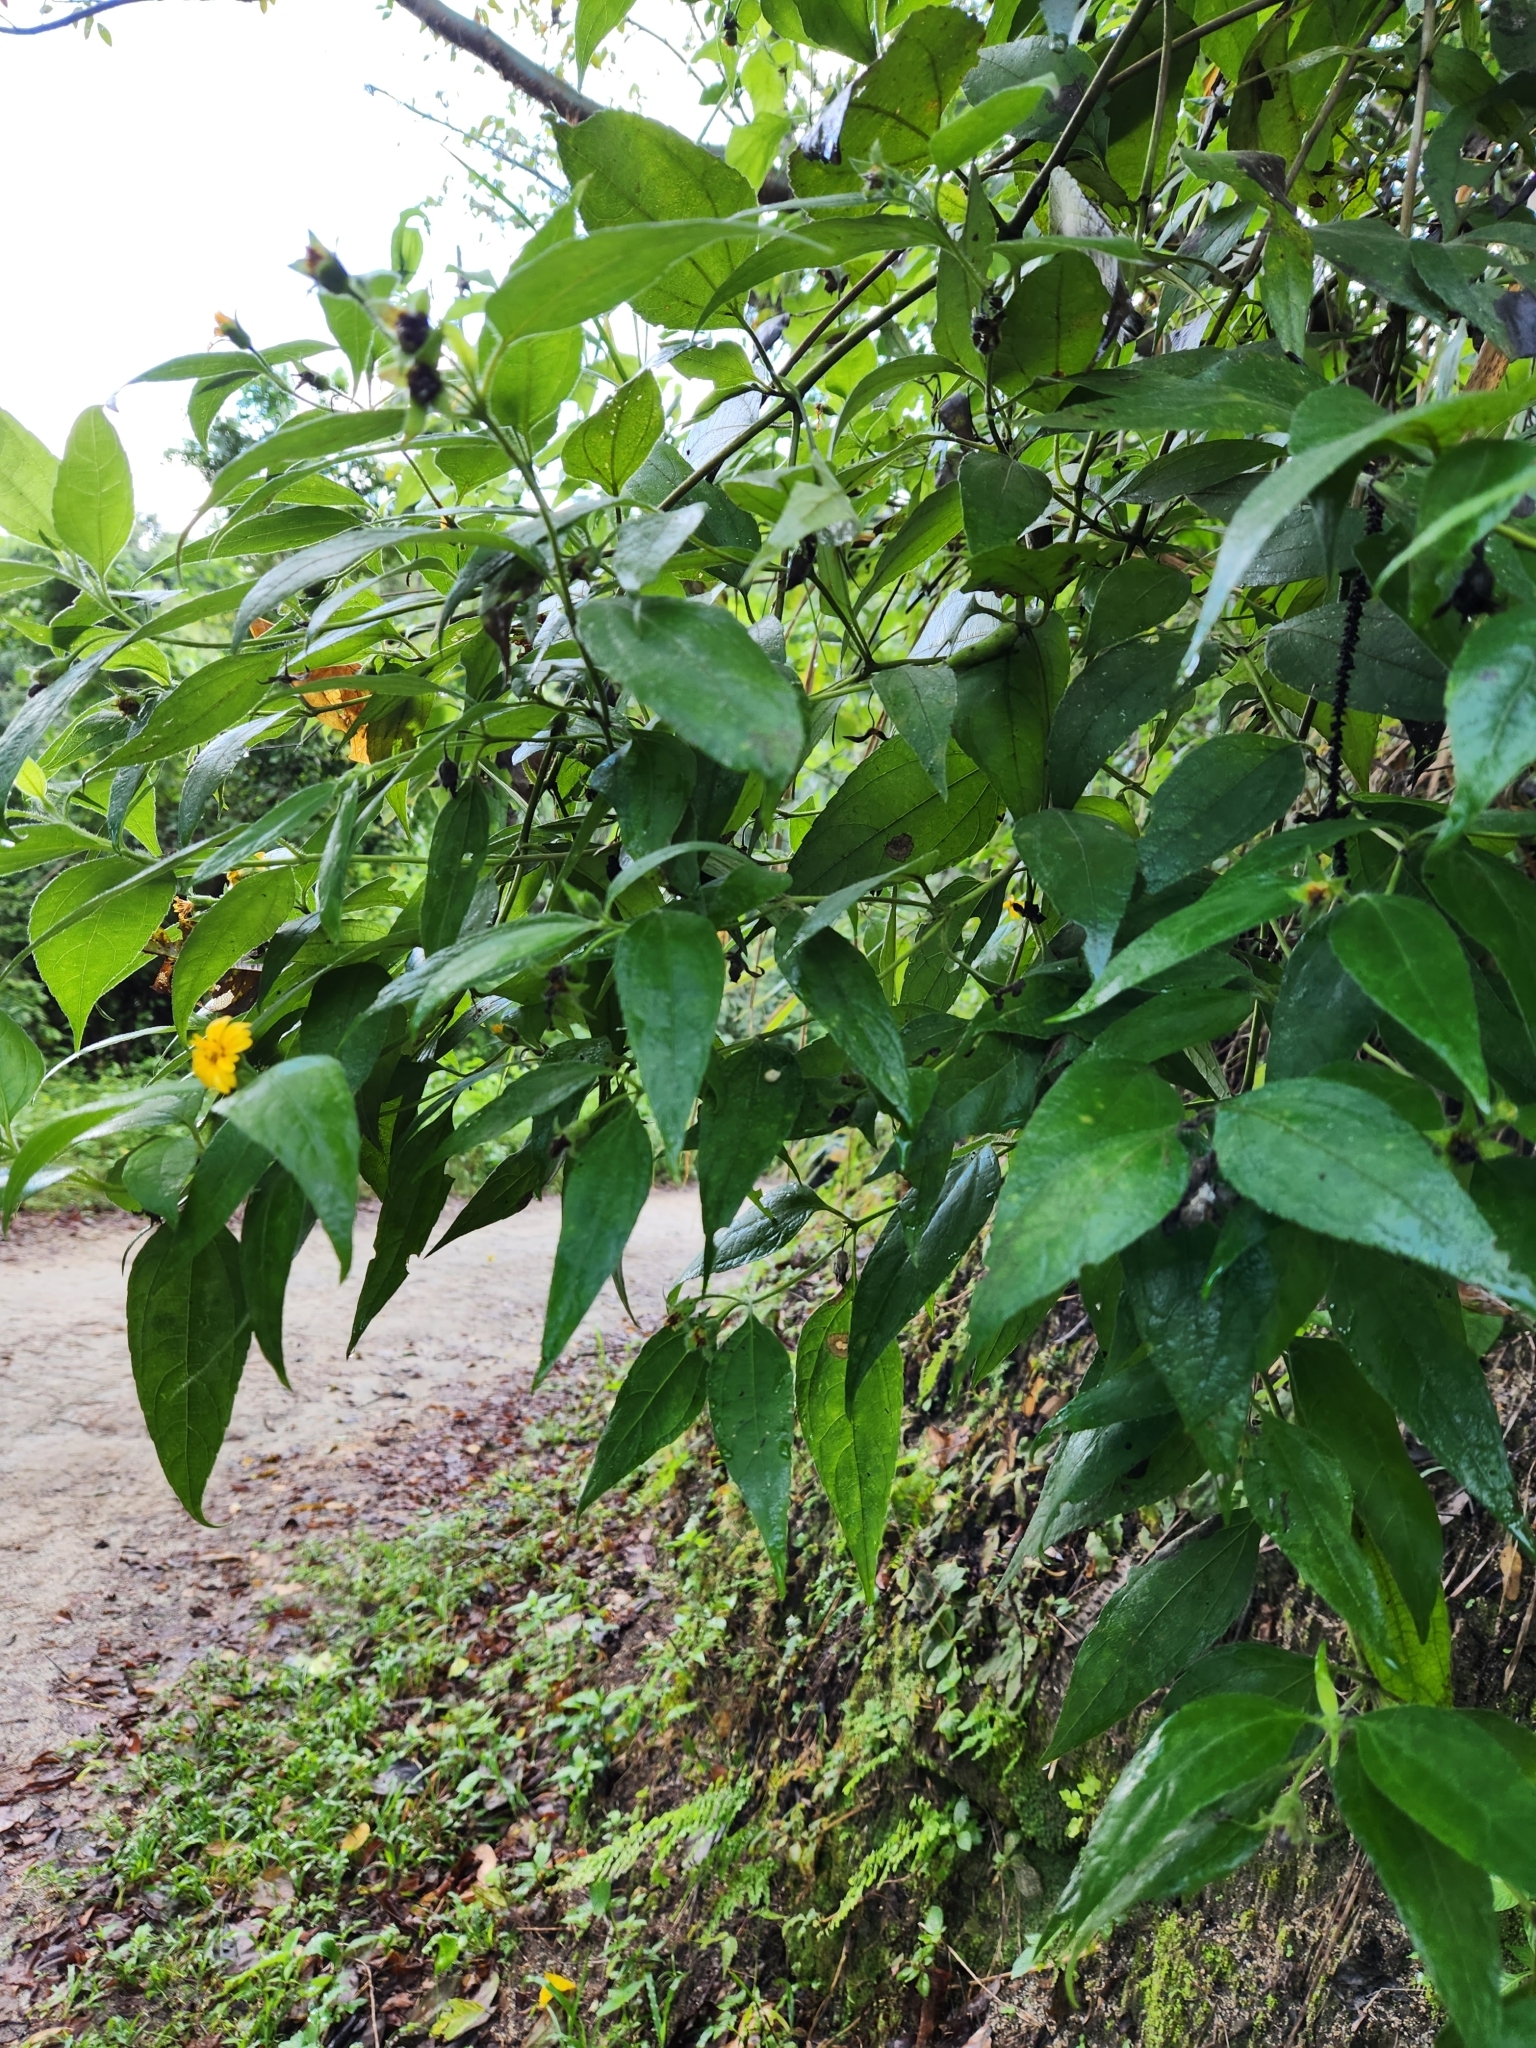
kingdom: Plantae
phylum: Tracheophyta
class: Magnoliopsida
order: Asterales
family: Asteraceae
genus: Sphagneticola
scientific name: Sphagneticola trilobata
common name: Bay biscayne creeping-oxeye
